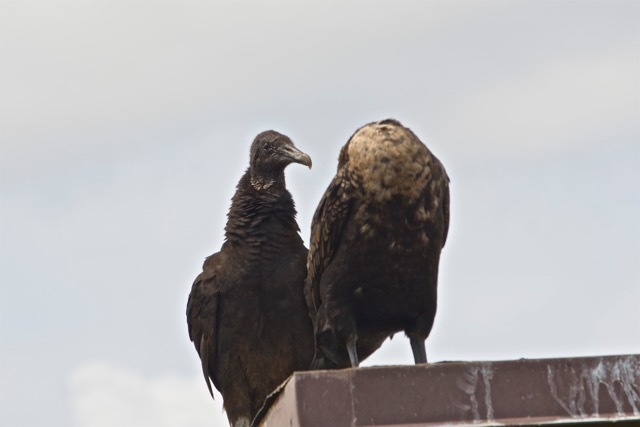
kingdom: Animalia
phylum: Chordata
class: Aves
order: Accipitriformes
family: Cathartidae
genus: Coragyps
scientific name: Coragyps atratus
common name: Black vulture
